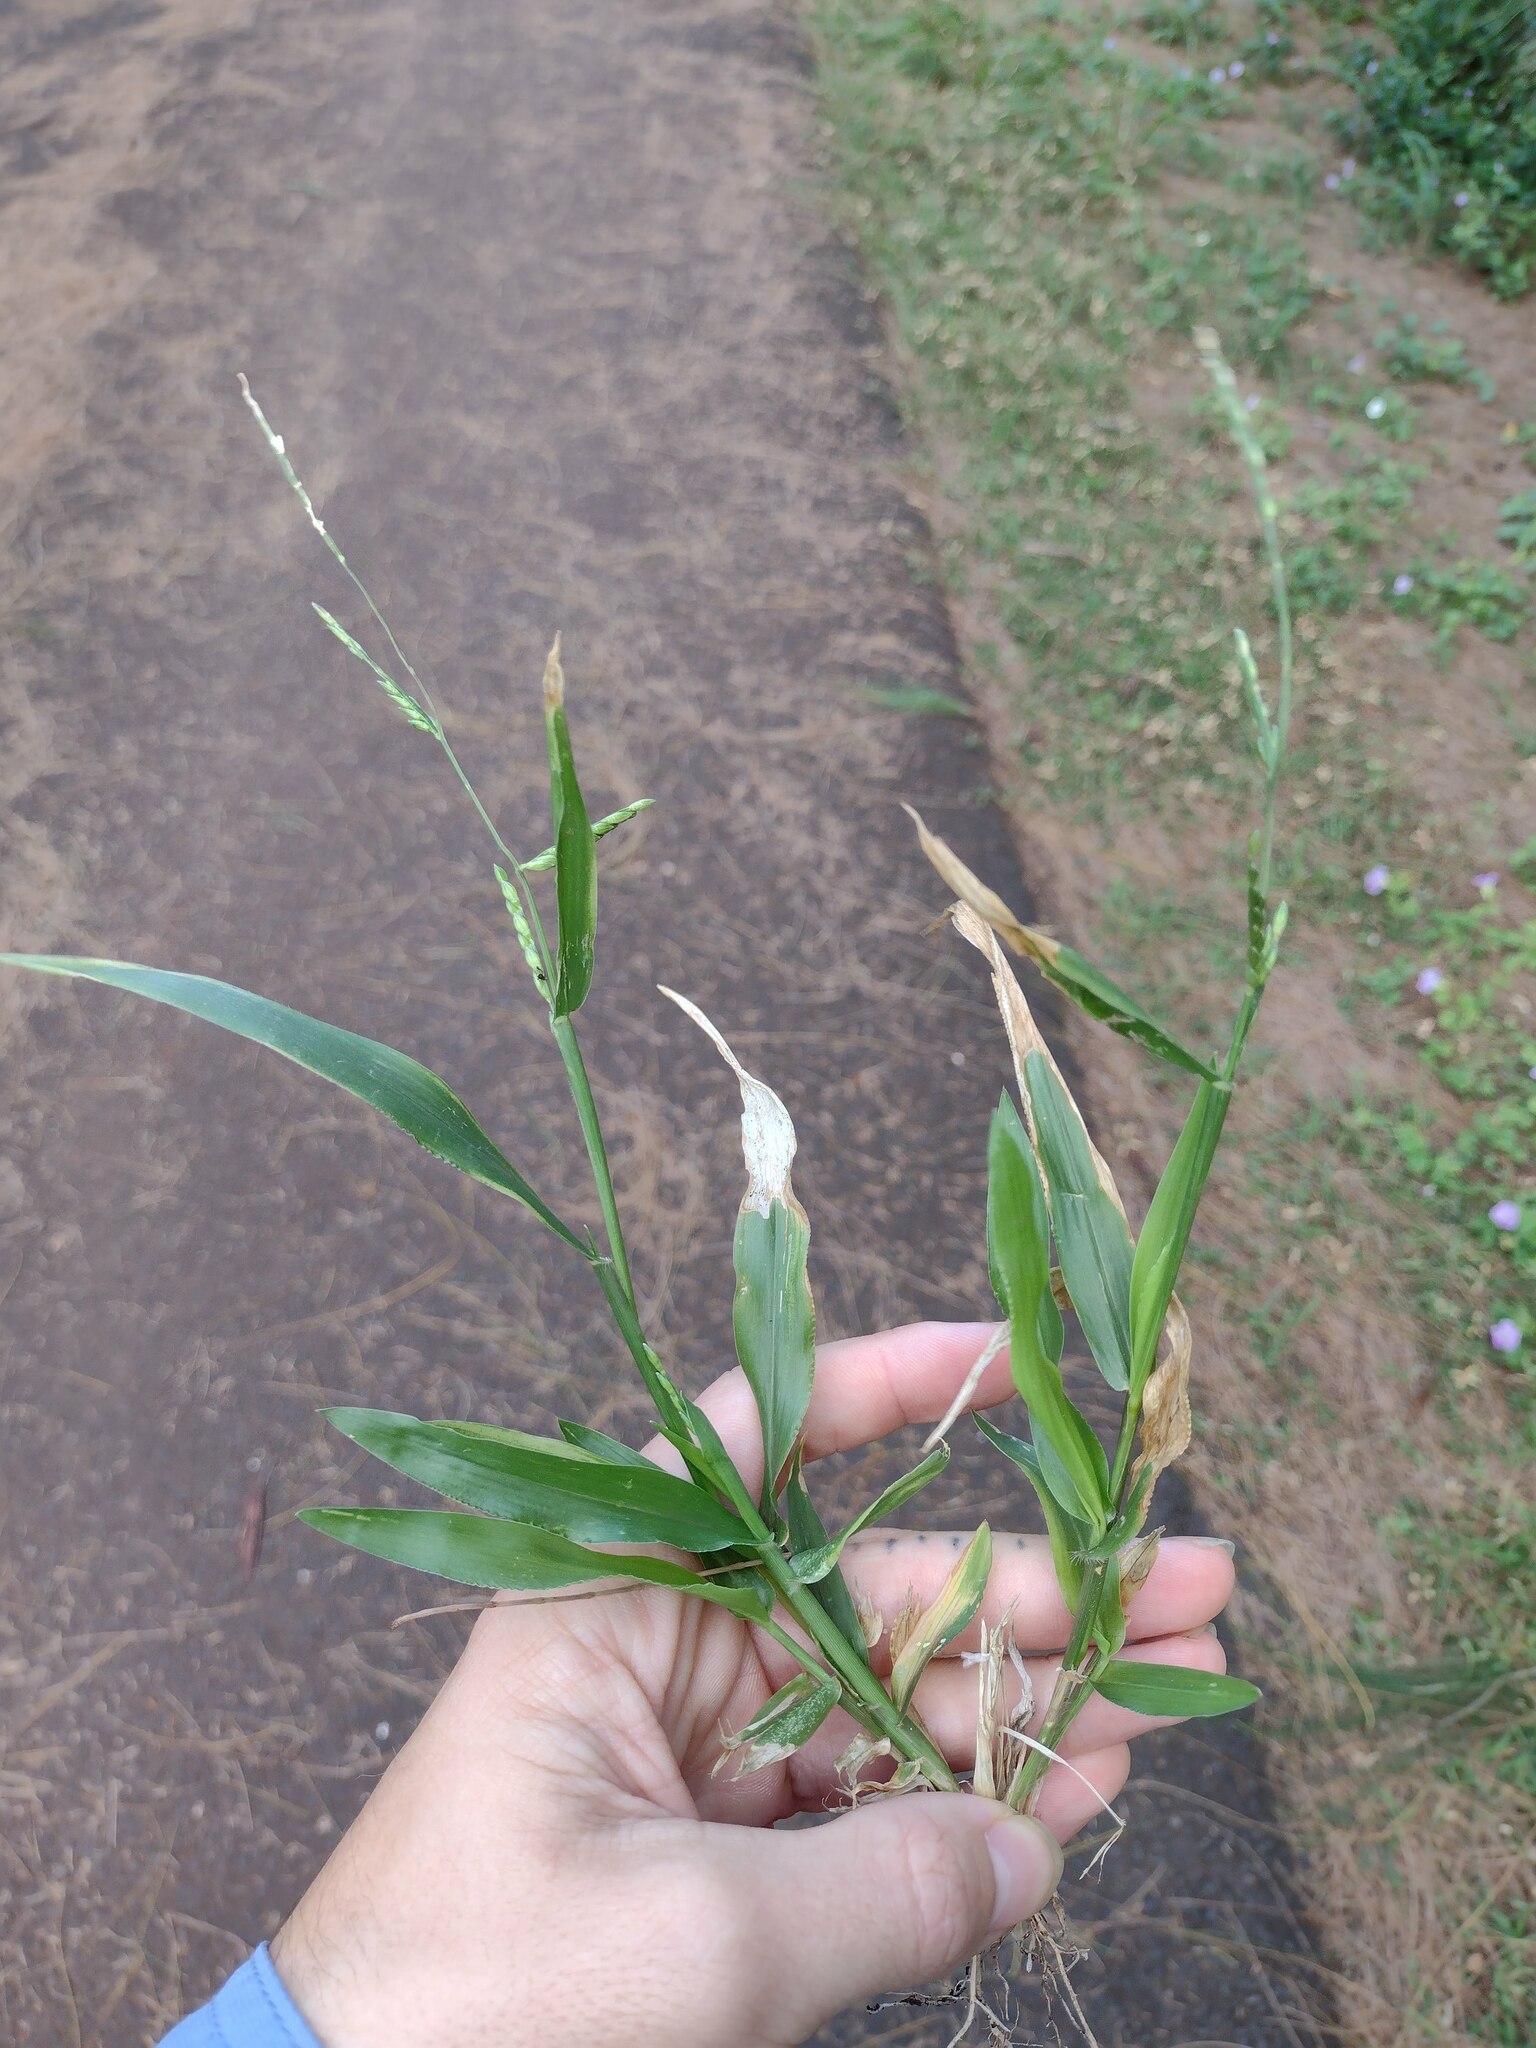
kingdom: Plantae
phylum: Tracheophyta
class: Liliopsida
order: Poales
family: Poaceae
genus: Urochloa
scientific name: Urochloa plantaginea
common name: Plantain signalgrass
